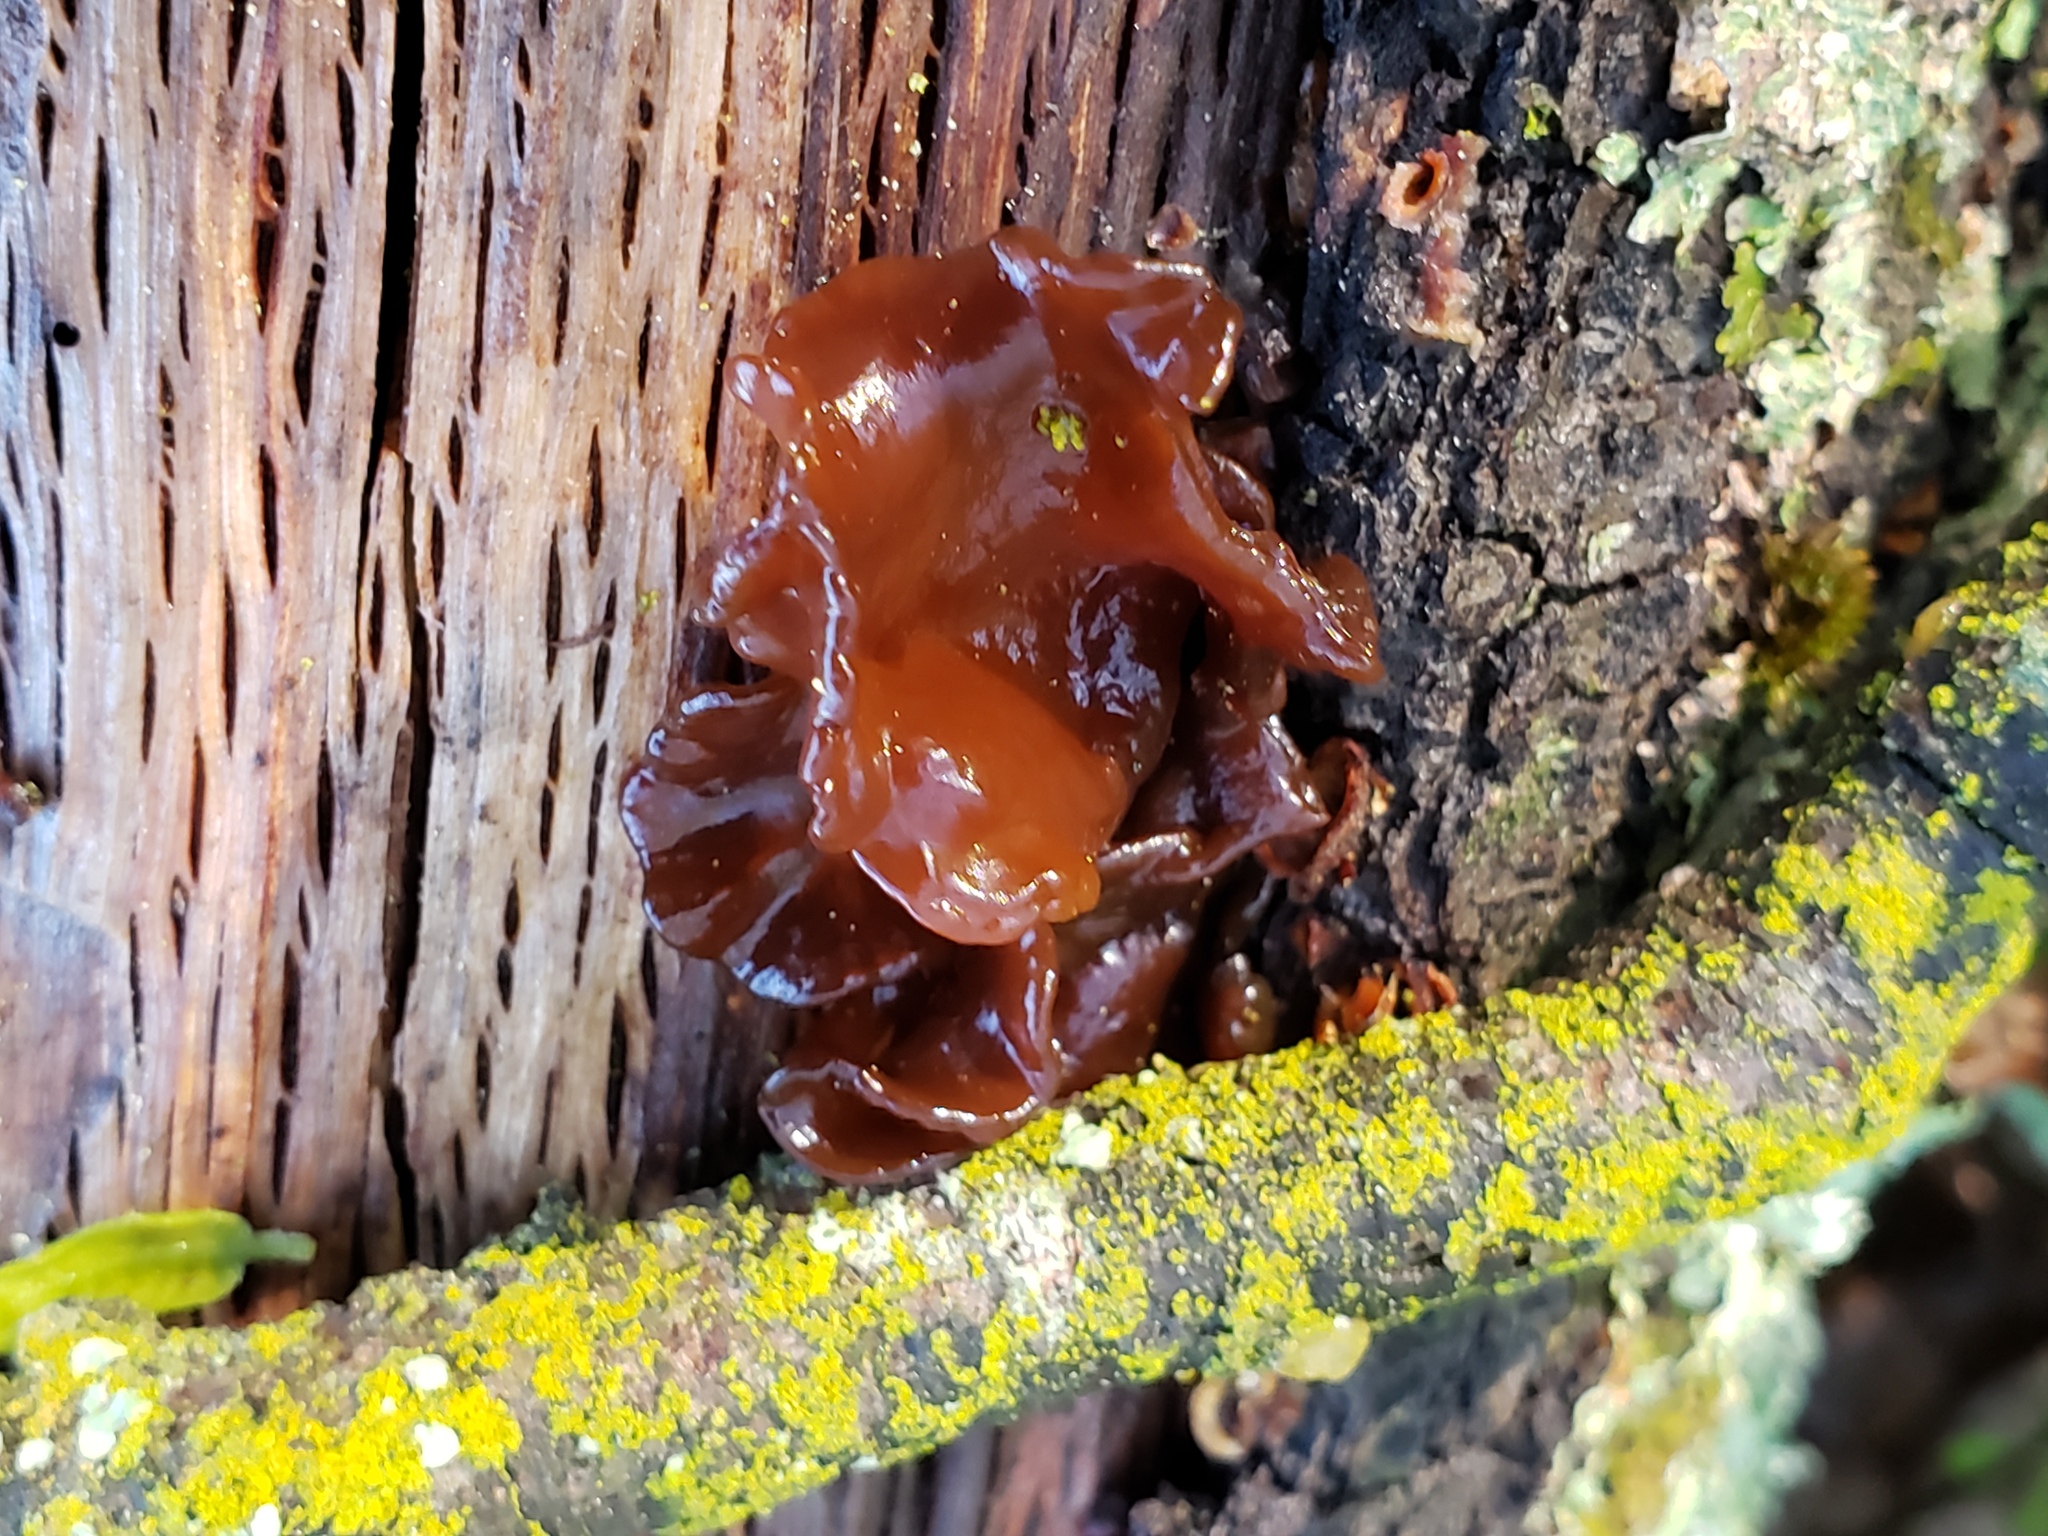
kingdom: Fungi
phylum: Basidiomycota
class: Tremellomycetes
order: Tremellales
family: Tremellaceae
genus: Phaeotremella
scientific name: Phaeotremella foliacea
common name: Leafy brain
